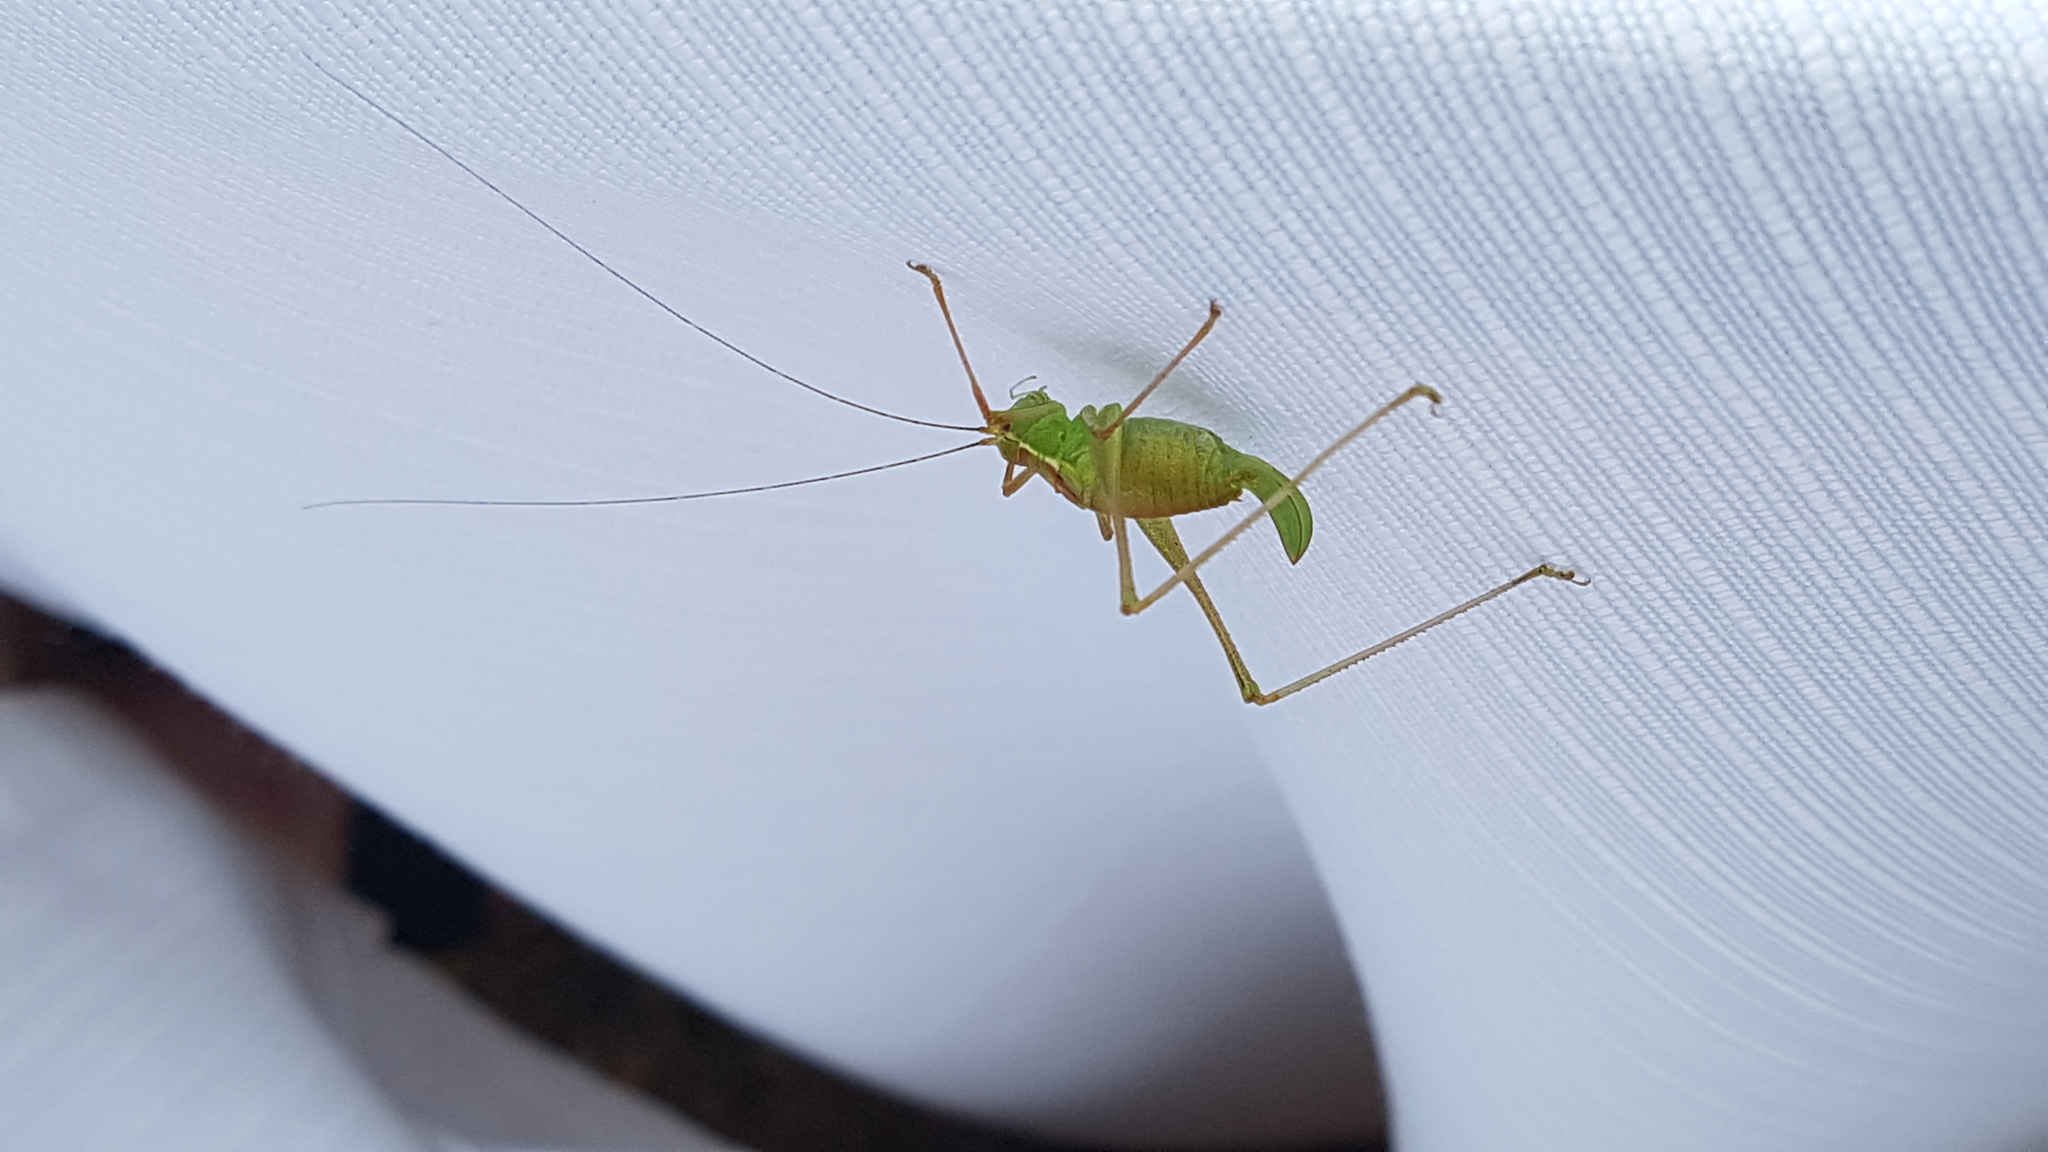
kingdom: Animalia
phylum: Arthropoda
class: Insecta
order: Orthoptera
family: Tettigoniidae
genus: Leptophyes
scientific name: Leptophyes punctatissima
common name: Speckled bush-cricket
